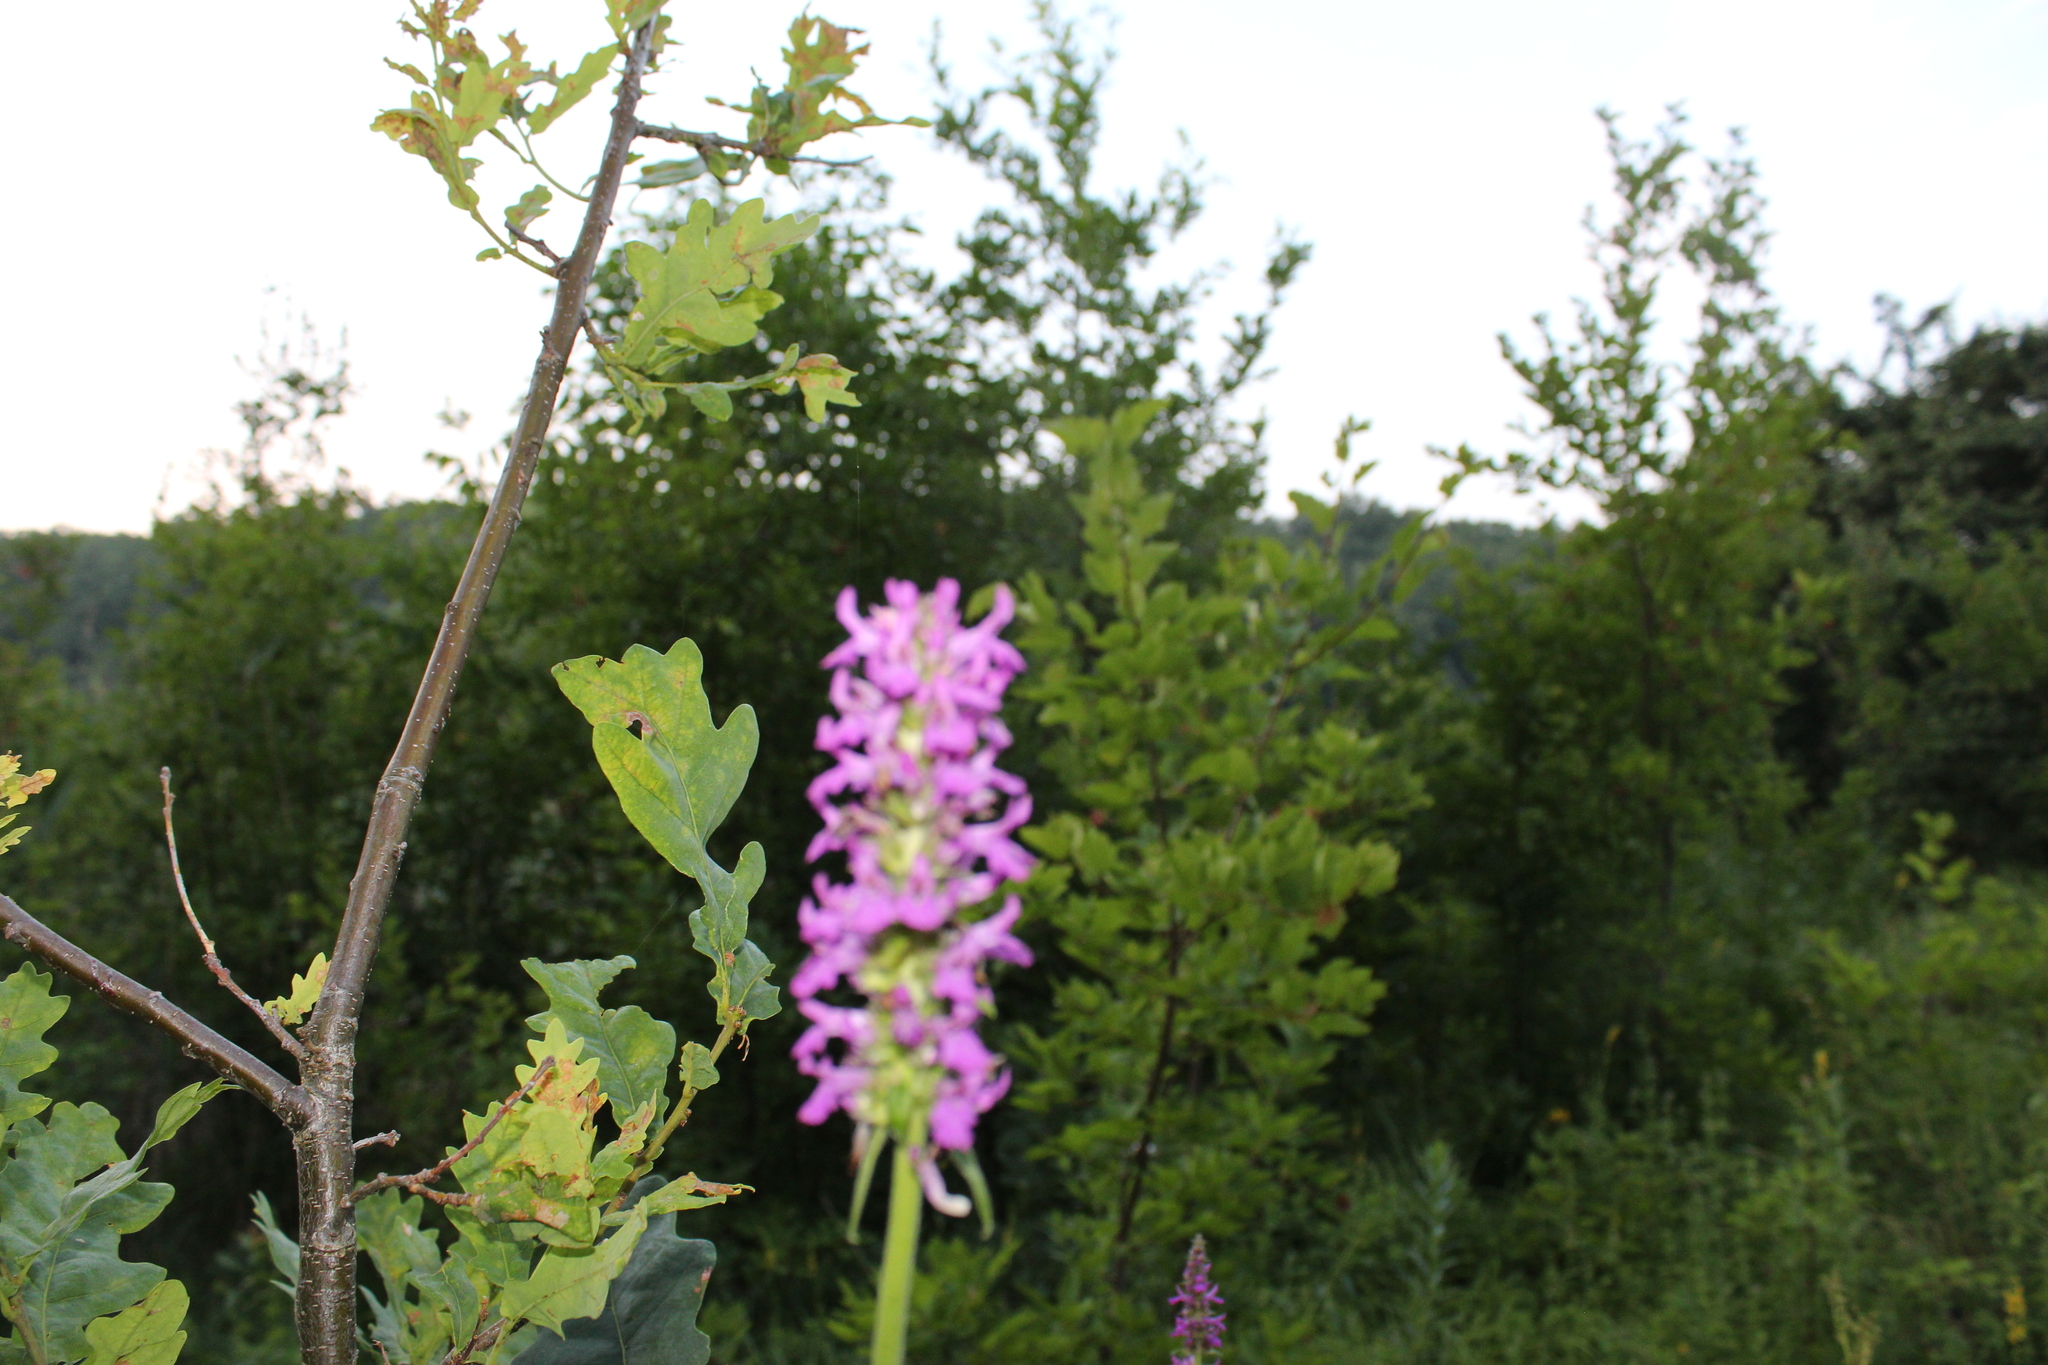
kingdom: Plantae
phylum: Tracheophyta
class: Magnoliopsida
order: Lamiales
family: Lamiaceae
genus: Betonica
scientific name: Betonica officinalis
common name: Bishop's-wort
